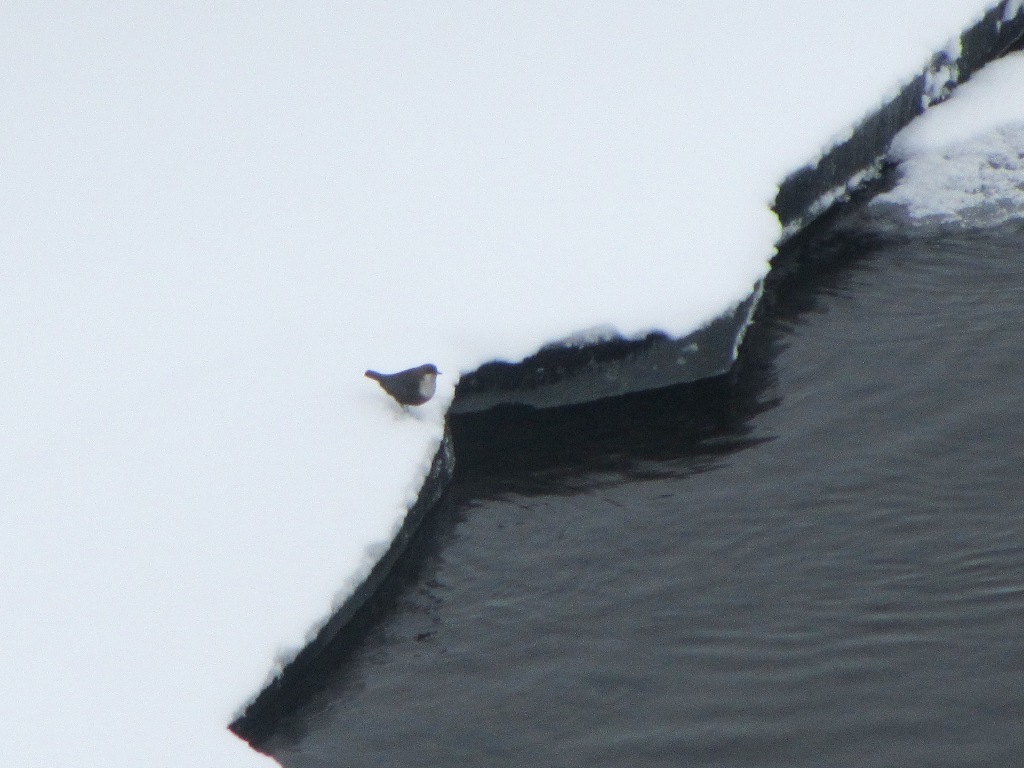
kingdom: Animalia
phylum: Chordata
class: Aves
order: Passeriformes
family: Cinclidae
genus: Cinclus
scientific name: Cinclus cinclus
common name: White-throated dipper
